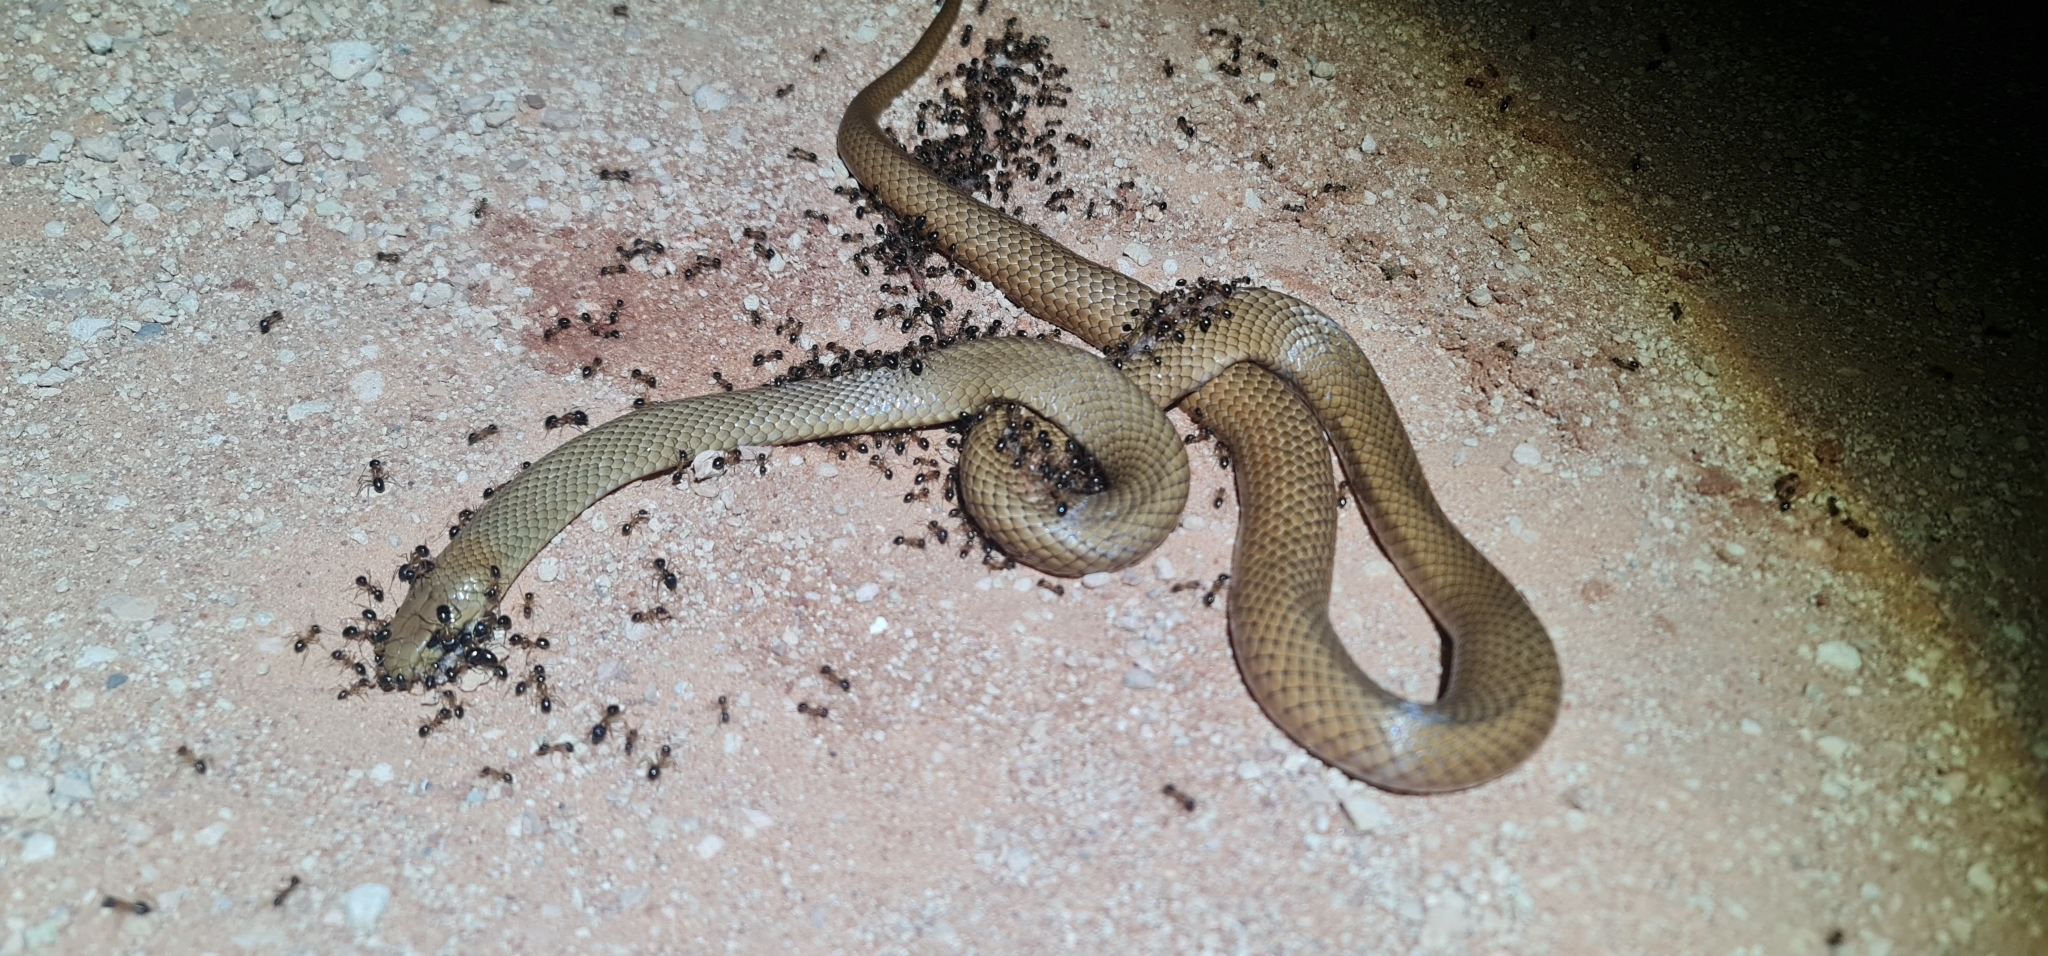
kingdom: Animalia
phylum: Chordata
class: Squamata
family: Elapidae
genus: Pseudonaja
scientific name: Pseudonaja textilis
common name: Eastern brown snake
